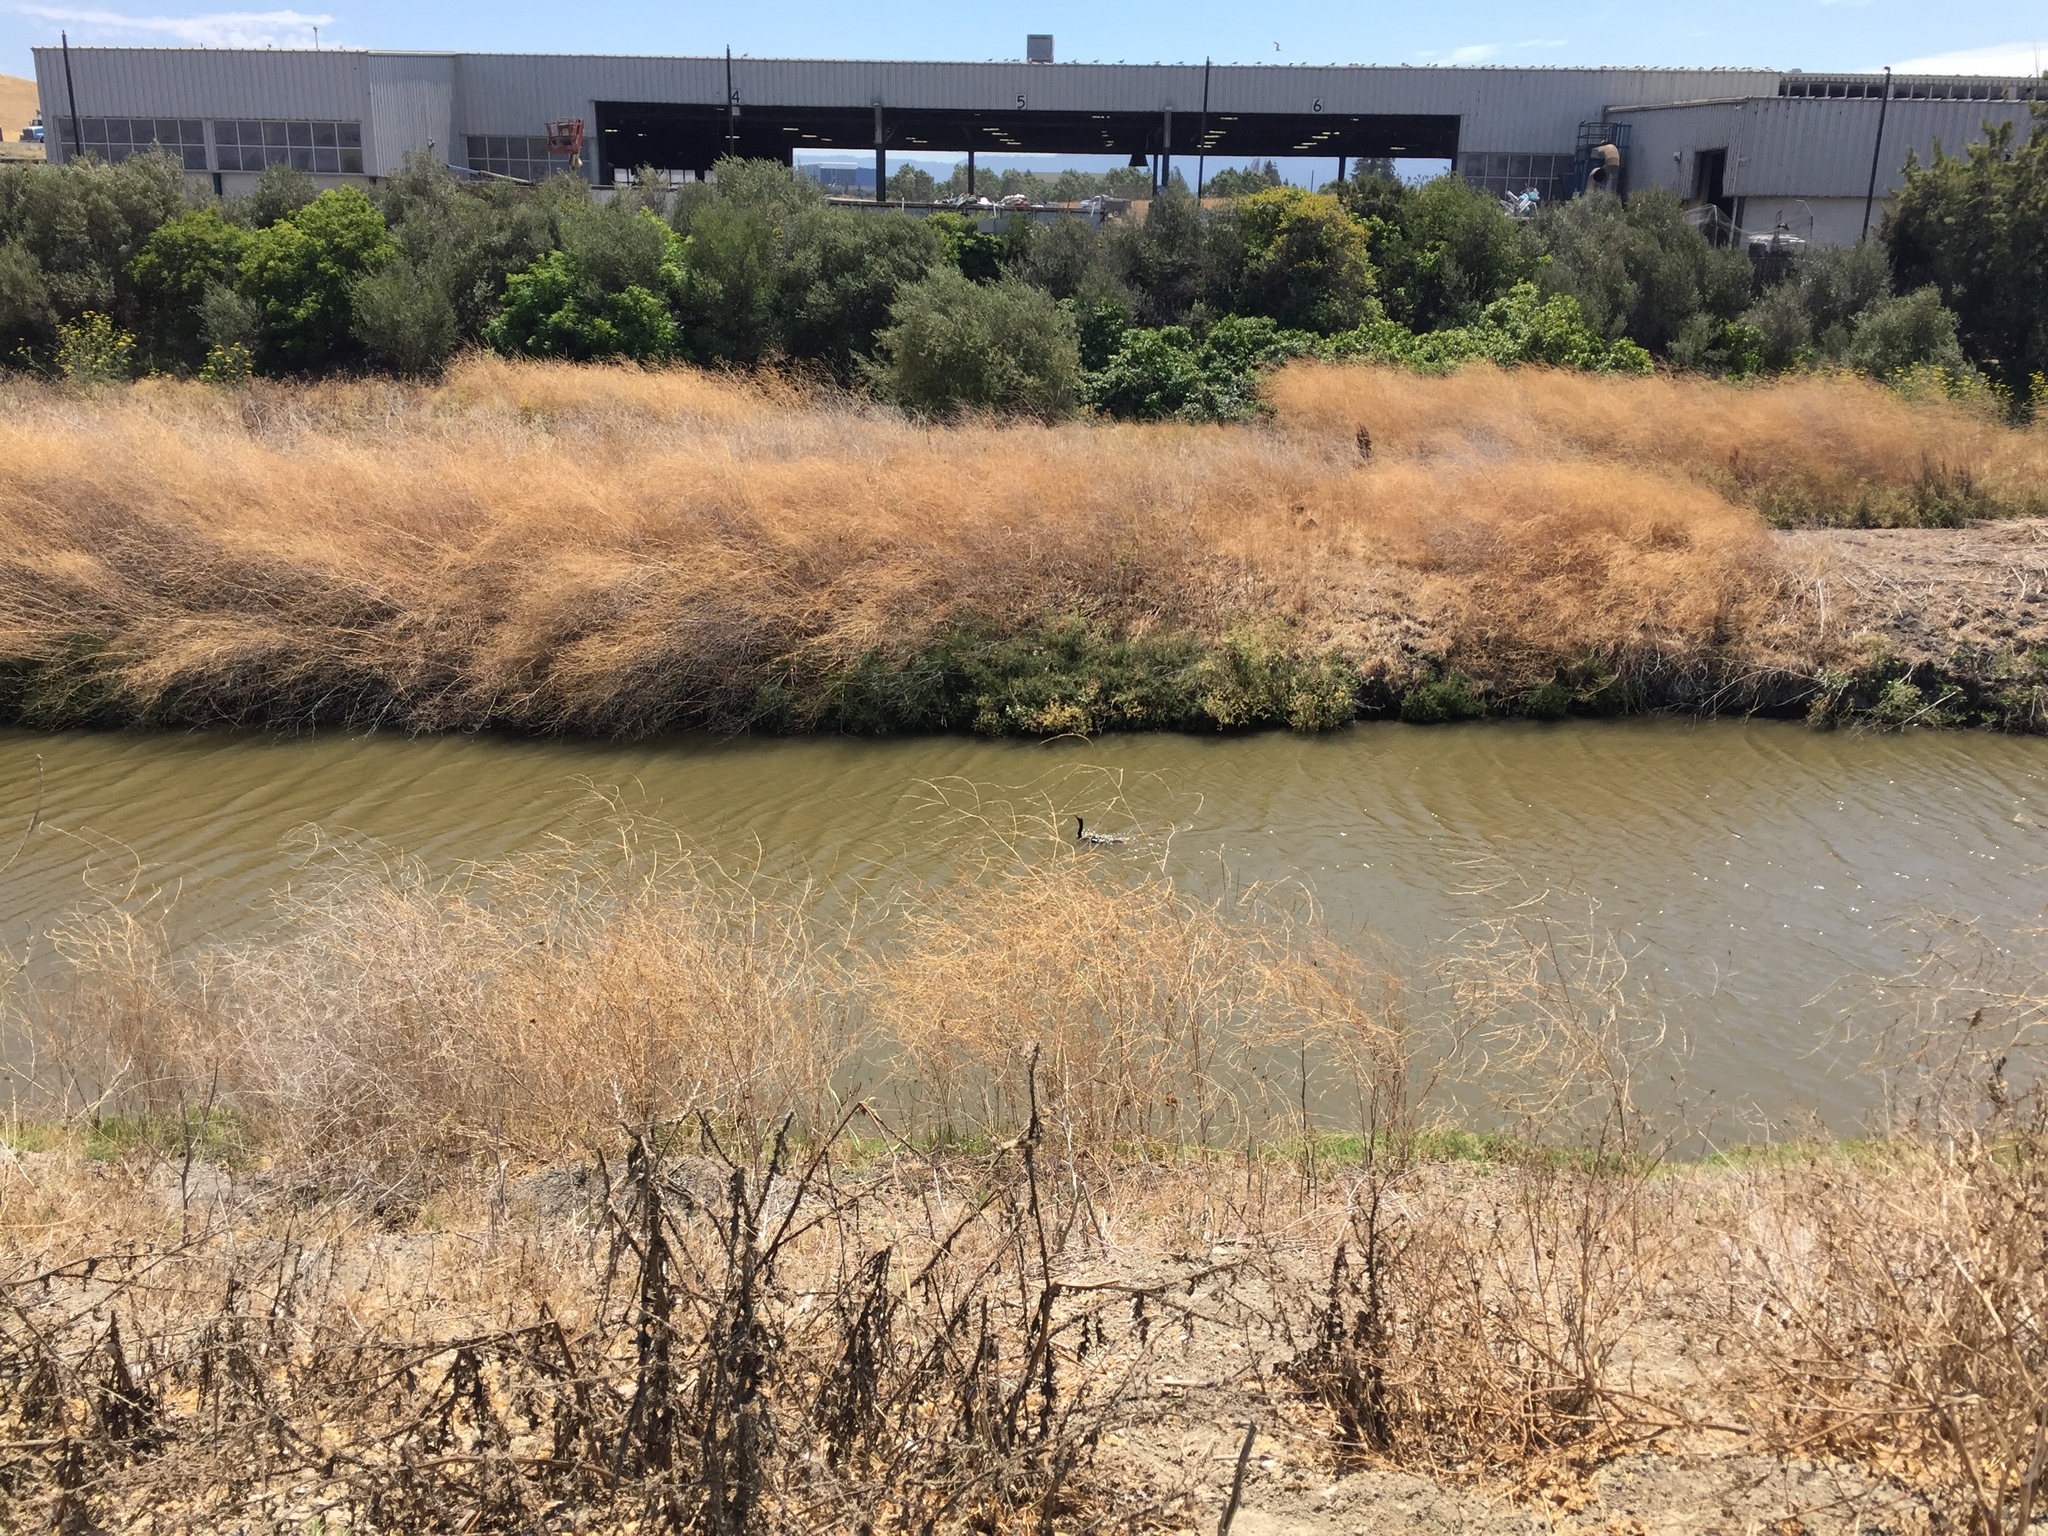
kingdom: Animalia
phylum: Chordata
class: Aves
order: Suliformes
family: Phalacrocoracidae
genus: Phalacrocorax
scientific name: Phalacrocorax auritus
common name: Double-crested cormorant
